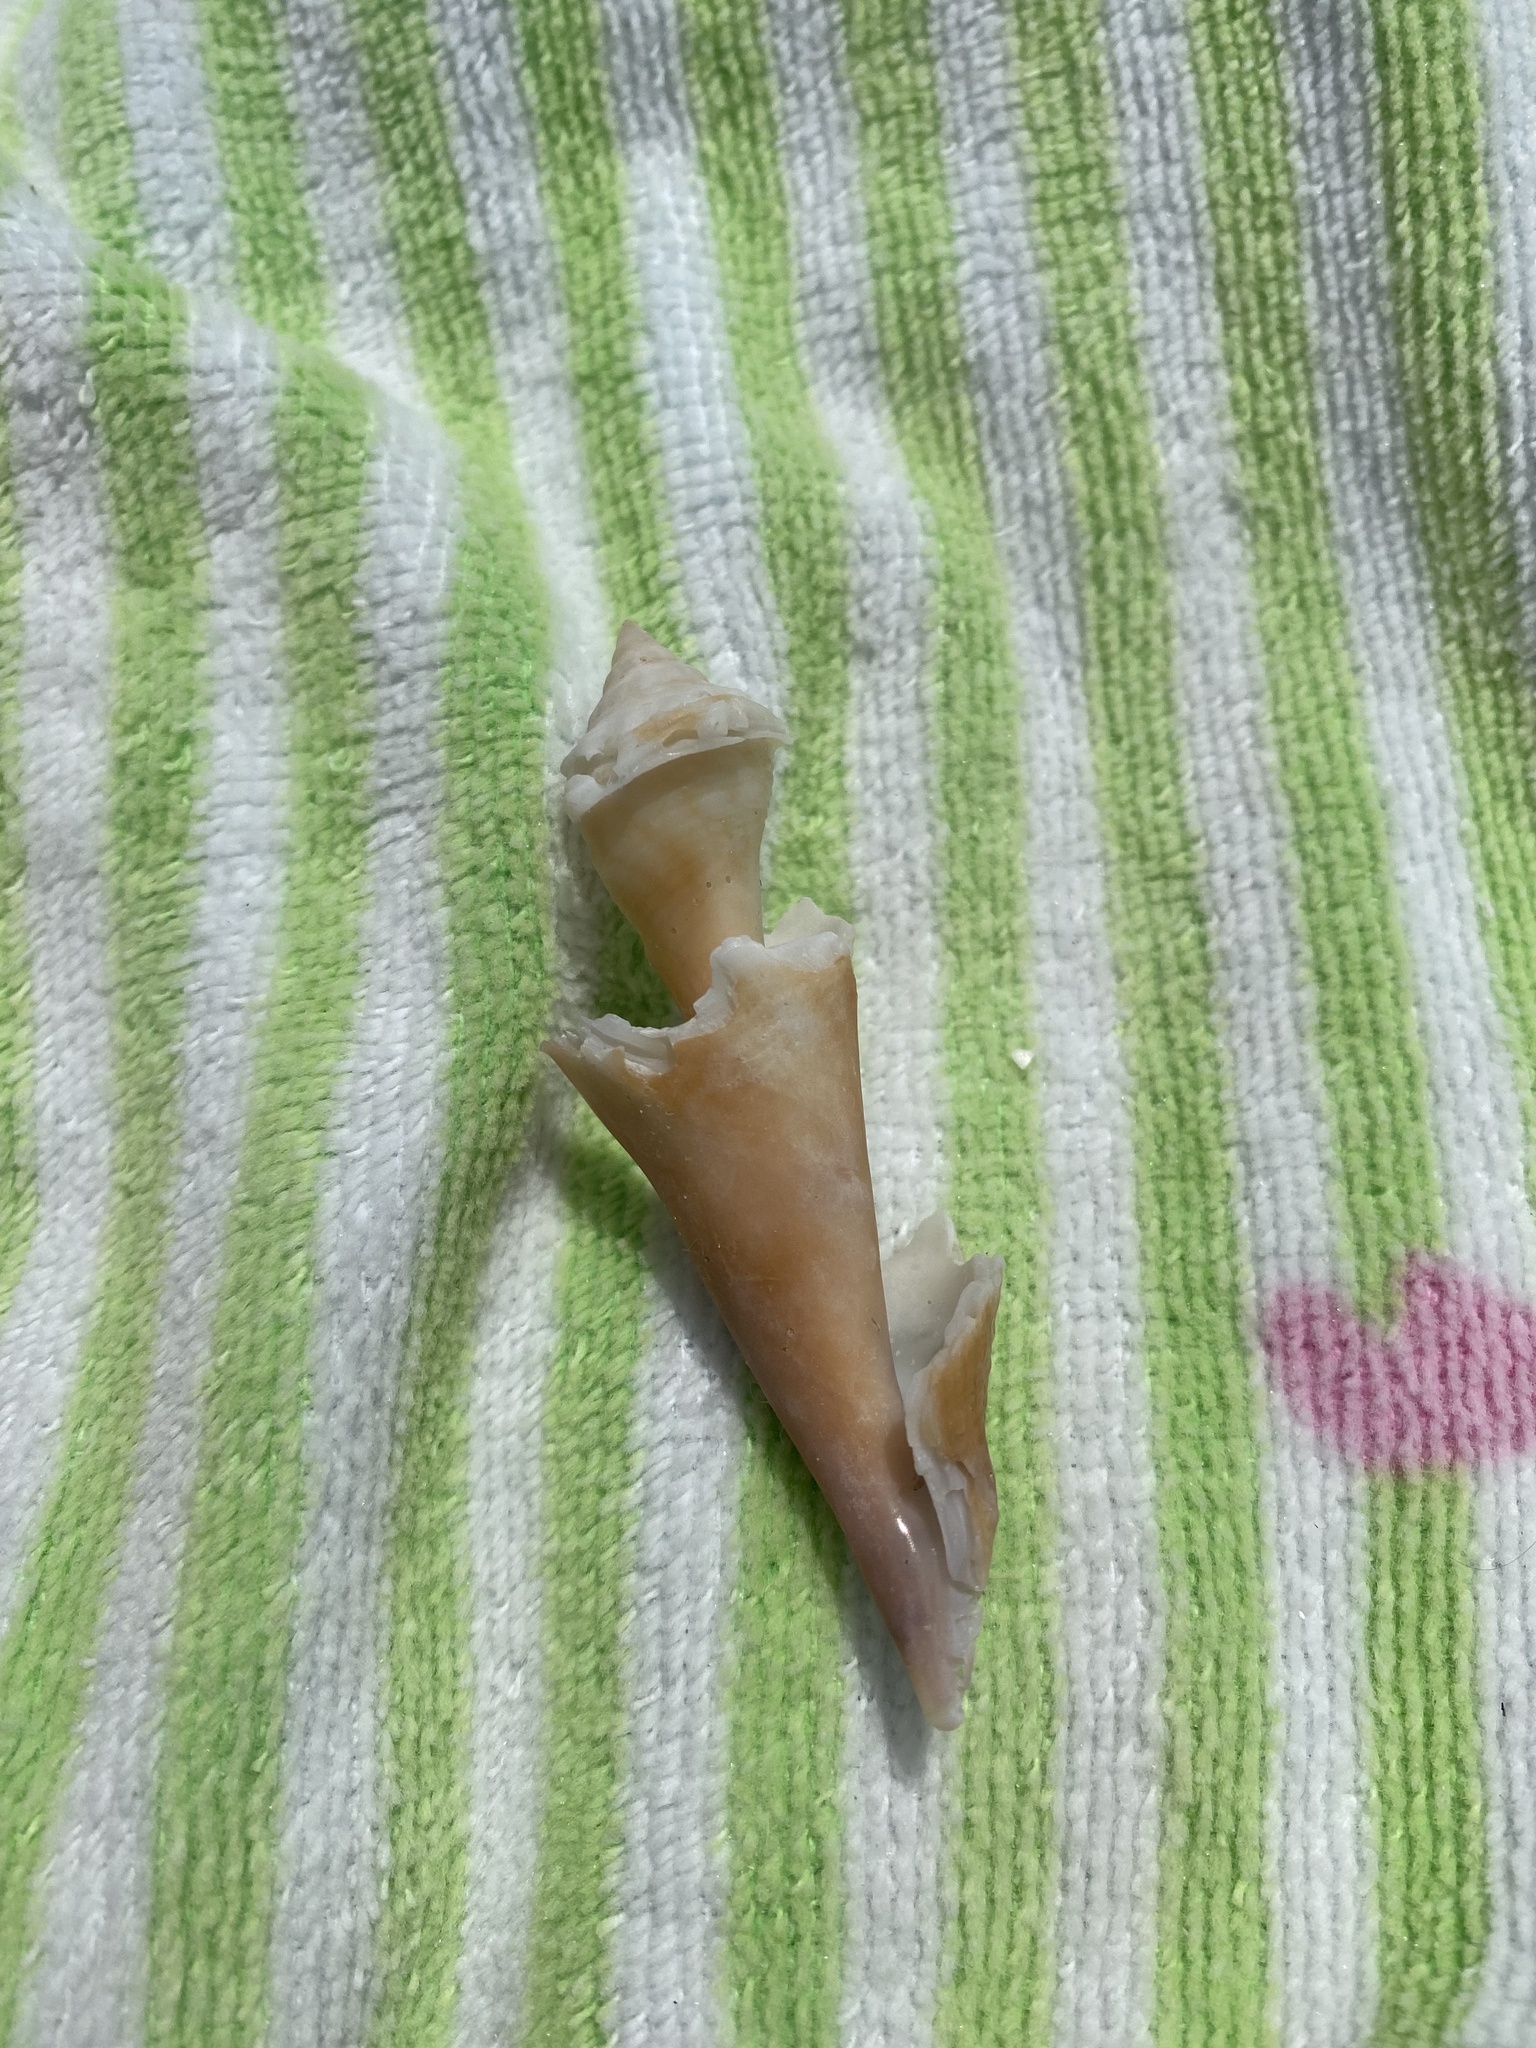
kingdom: Animalia
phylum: Mollusca
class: Gastropoda
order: Littorinimorpha
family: Strombidae
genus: Strombus
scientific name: Strombus alatus
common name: Florida fighting conch
